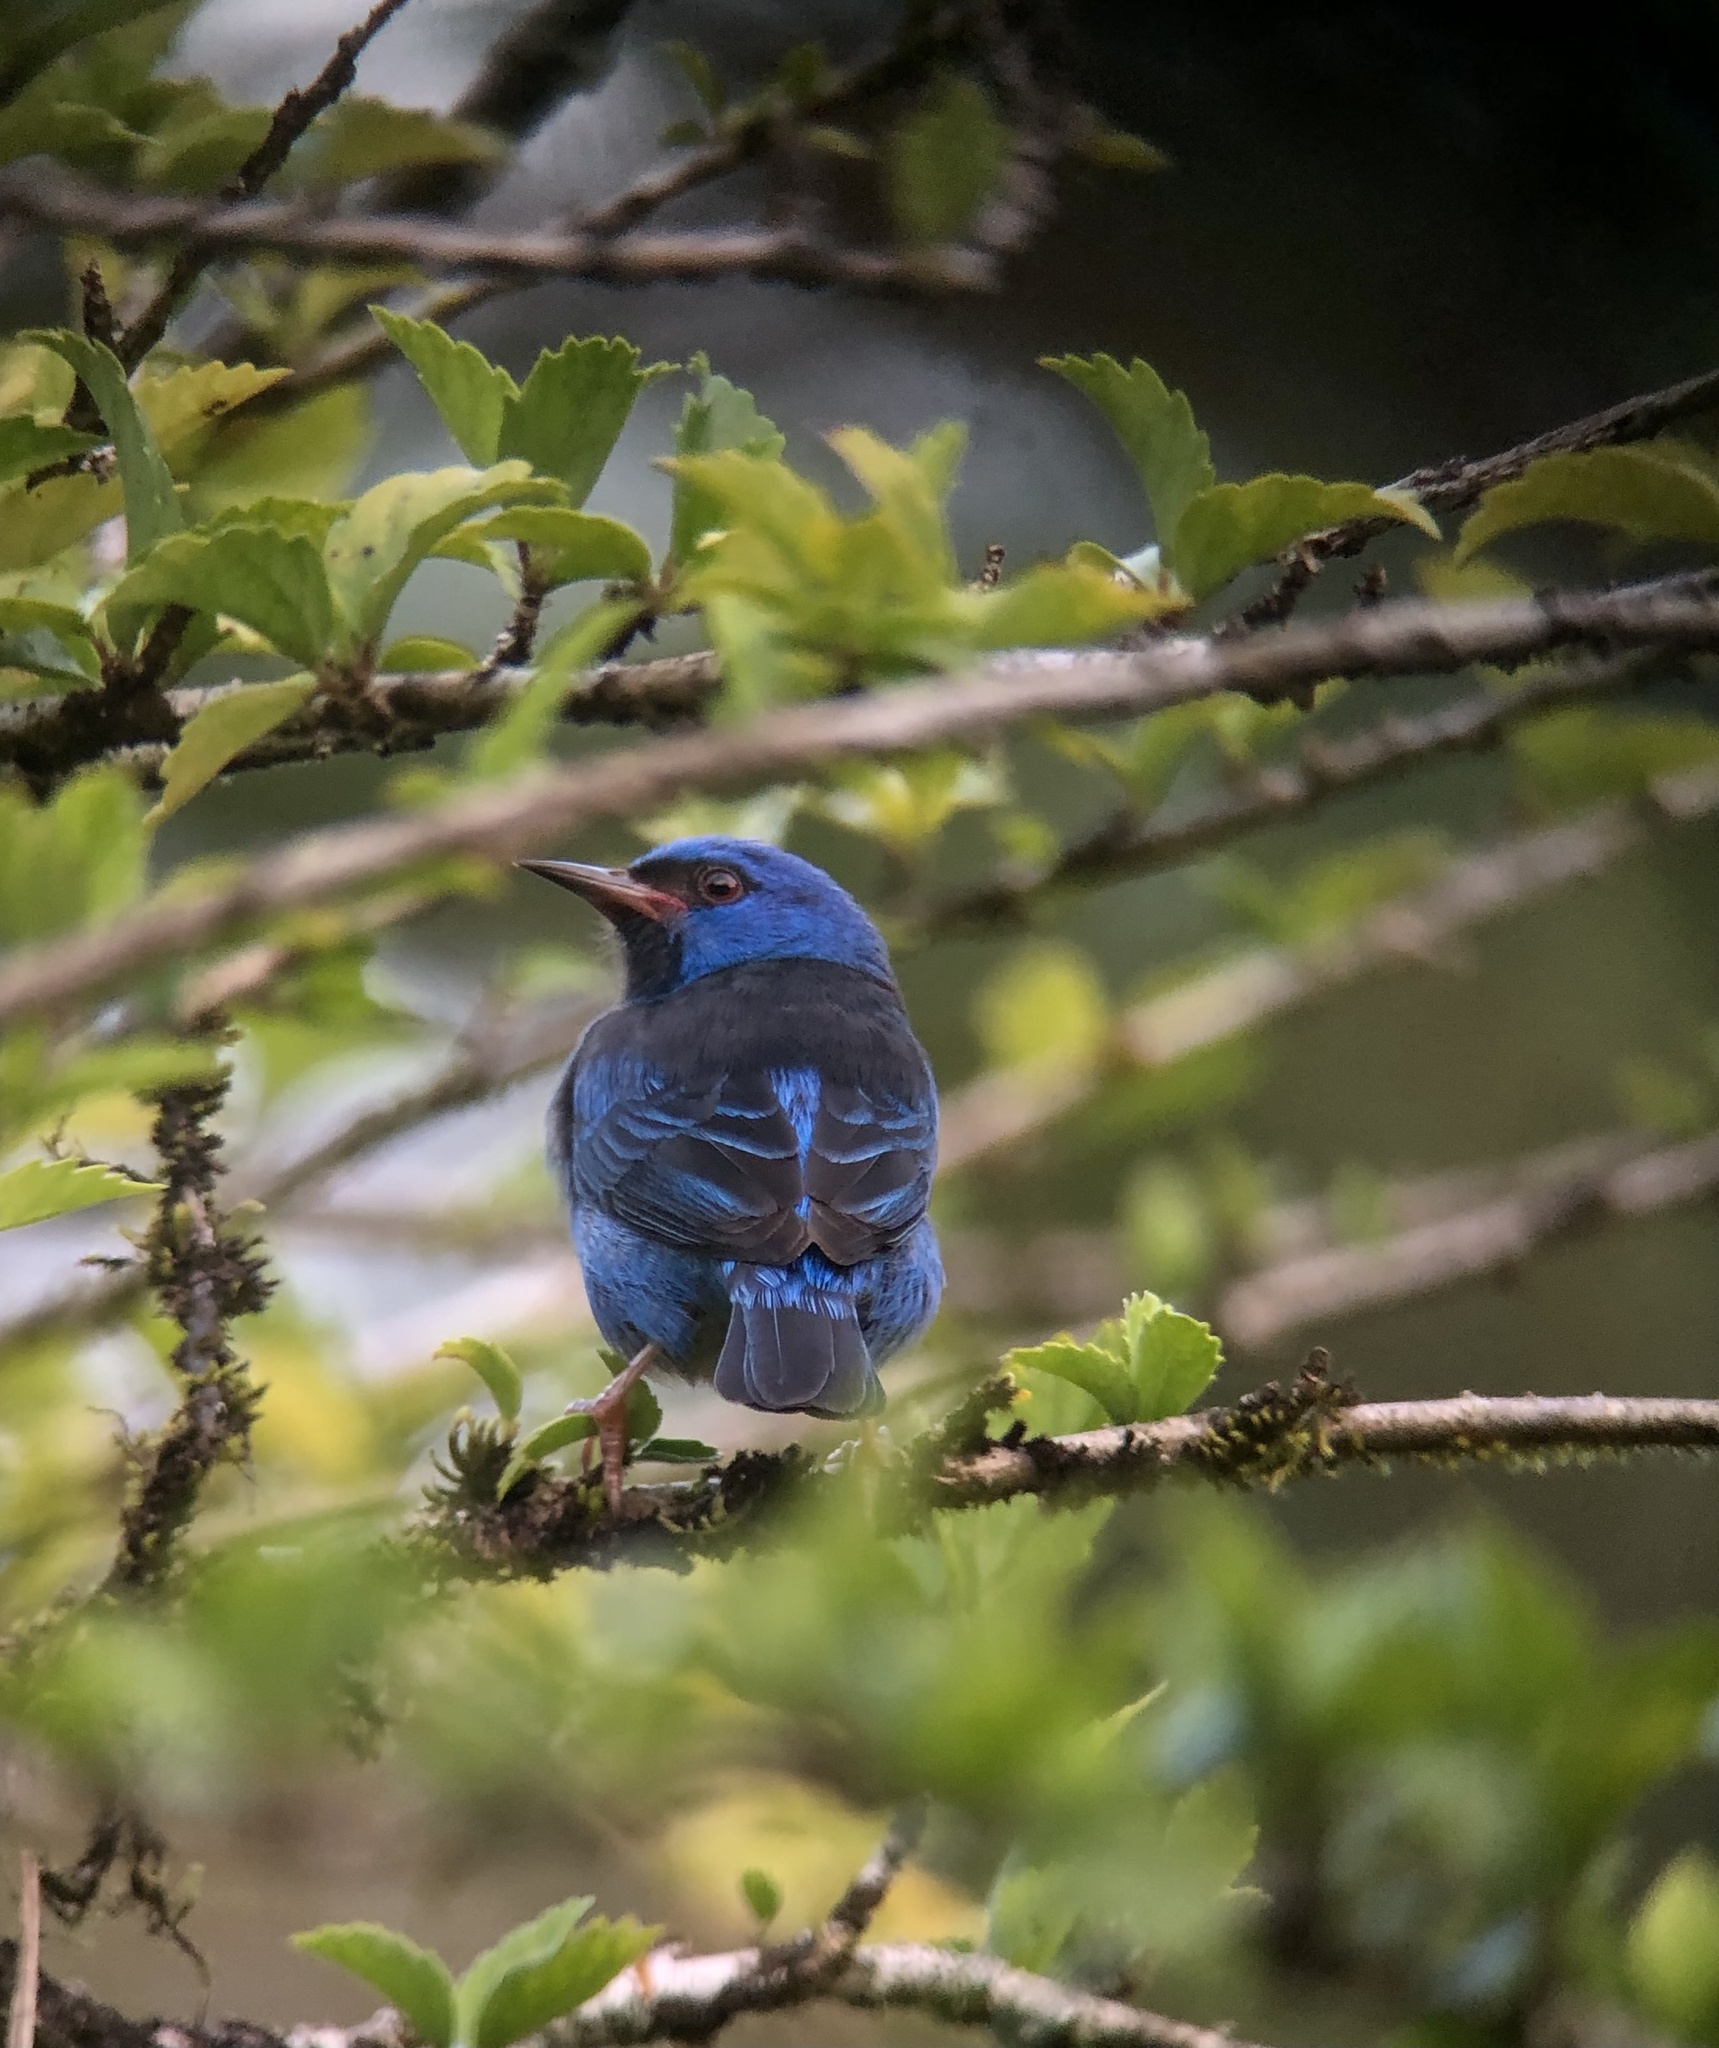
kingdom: Animalia
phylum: Chordata
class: Aves
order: Passeriformes
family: Thraupidae
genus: Dacnis
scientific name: Dacnis cayana
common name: Blue dacnis
